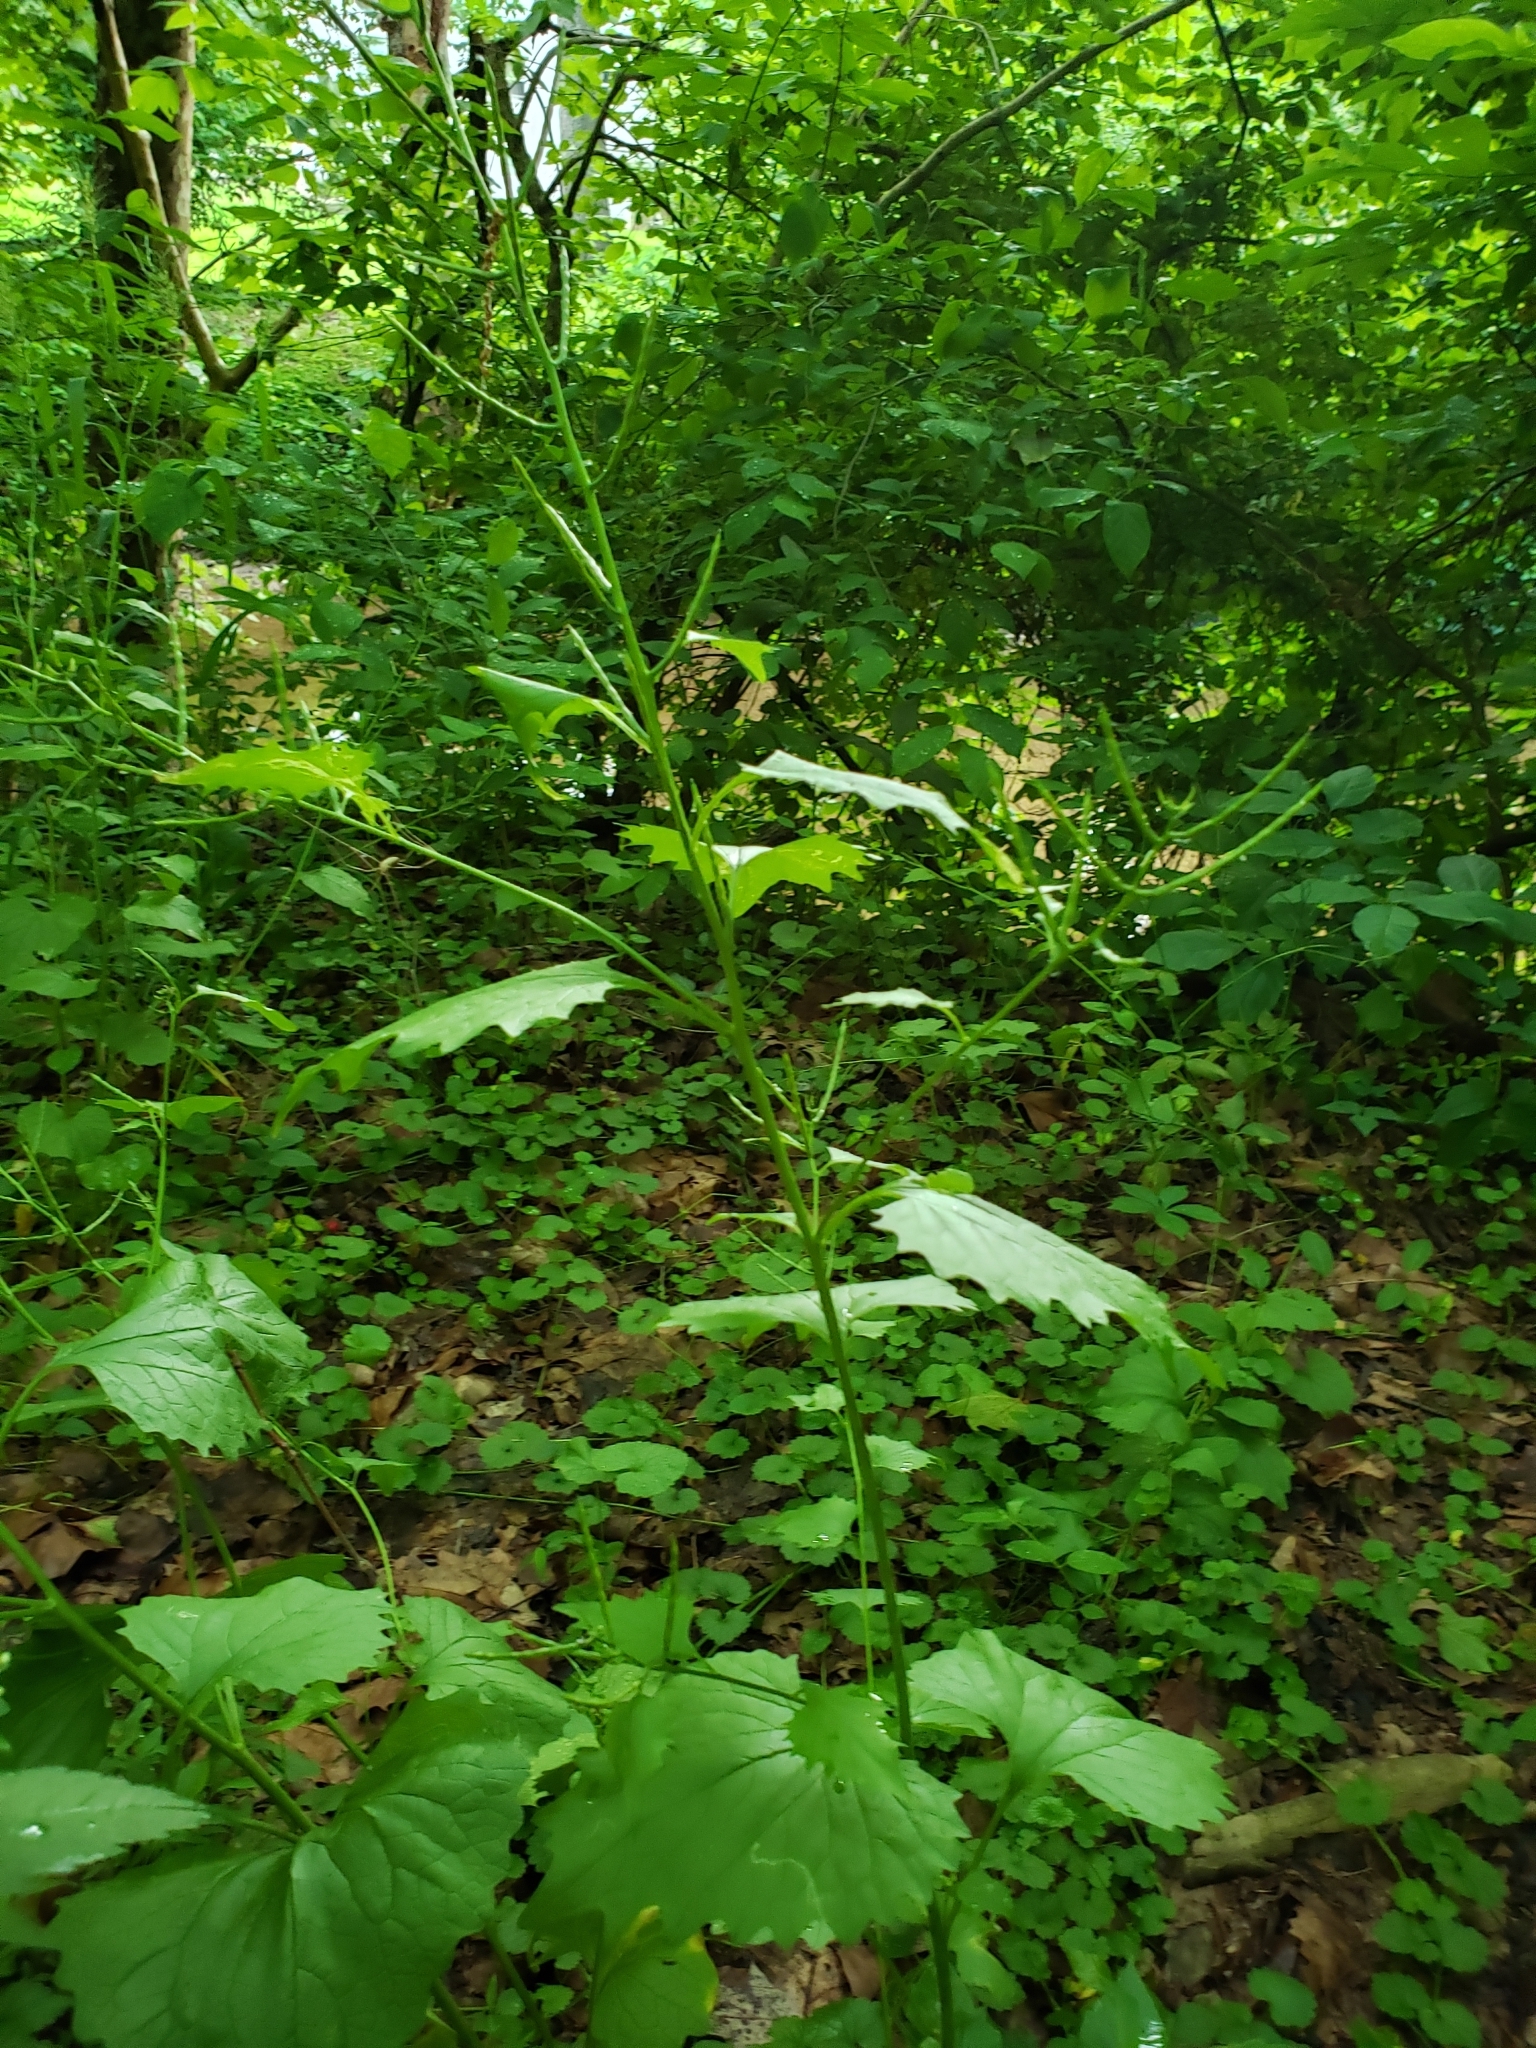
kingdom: Plantae
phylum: Tracheophyta
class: Magnoliopsida
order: Brassicales
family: Brassicaceae
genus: Alliaria
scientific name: Alliaria petiolata
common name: Garlic mustard
